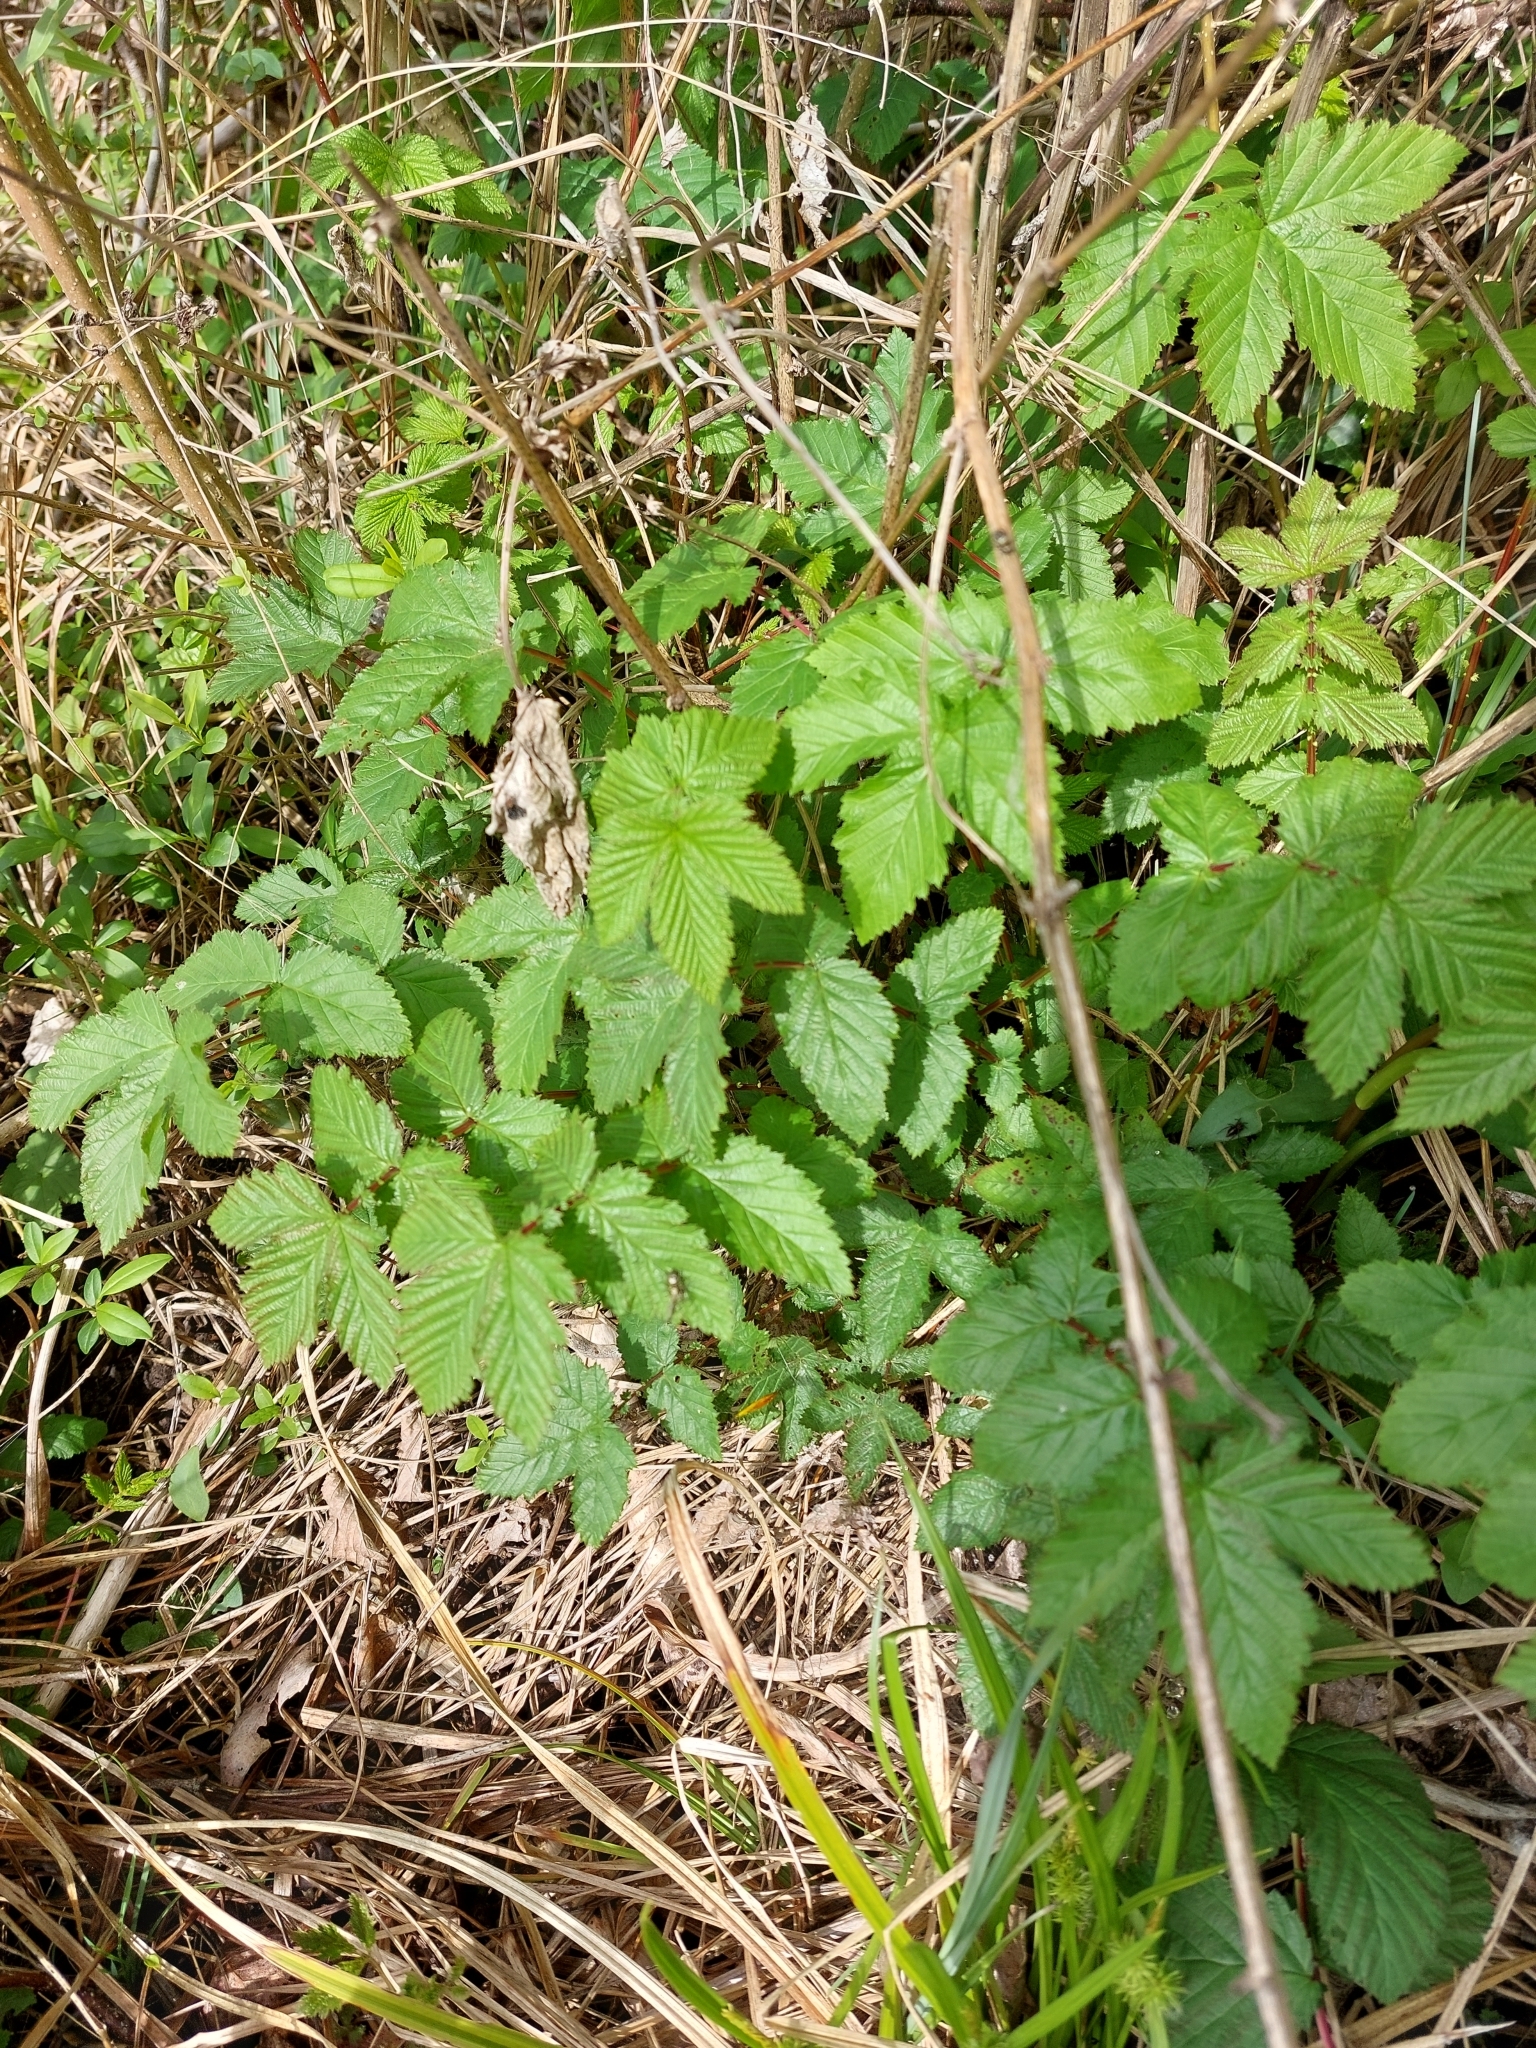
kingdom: Plantae
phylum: Tracheophyta
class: Magnoliopsida
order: Rosales
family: Rosaceae
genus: Filipendula
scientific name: Filipendula ulmaria
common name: Meadowsweet
